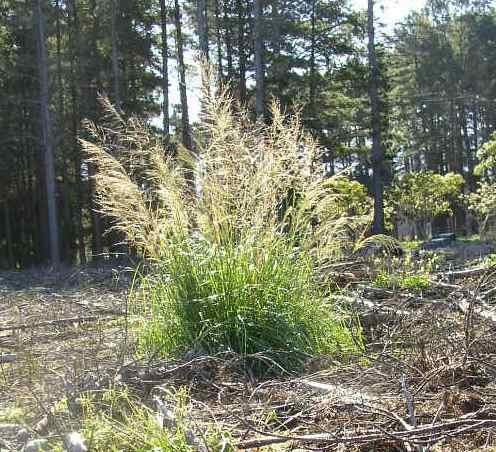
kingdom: Plantae
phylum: Tracheophyta
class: Liliopsida
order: Poales
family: Poaceae
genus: Eragrostis
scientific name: Eragrostis curvula
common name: African love-grass
